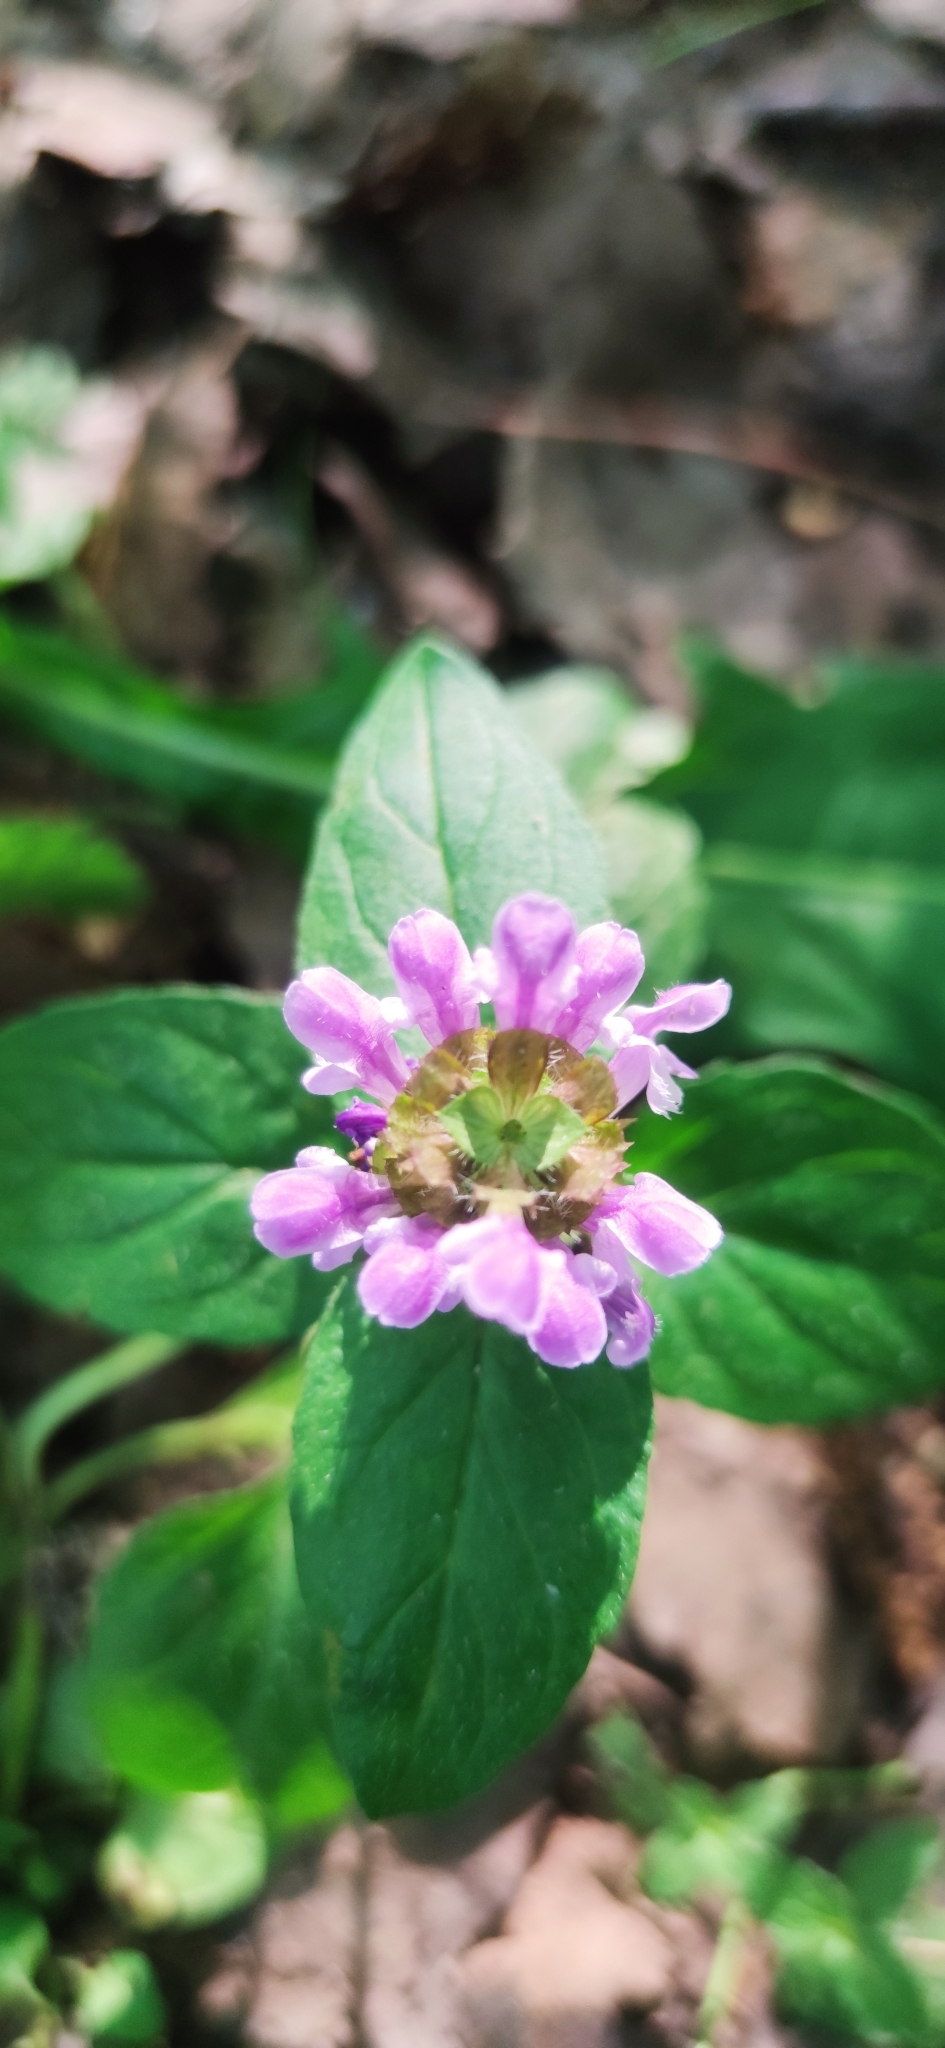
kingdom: Plantae
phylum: Tracheophyta
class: Magnoliopsida
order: Lamiales
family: Lamiaceae
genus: Prunella
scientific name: Prunella vulgaris
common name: Heal-all
